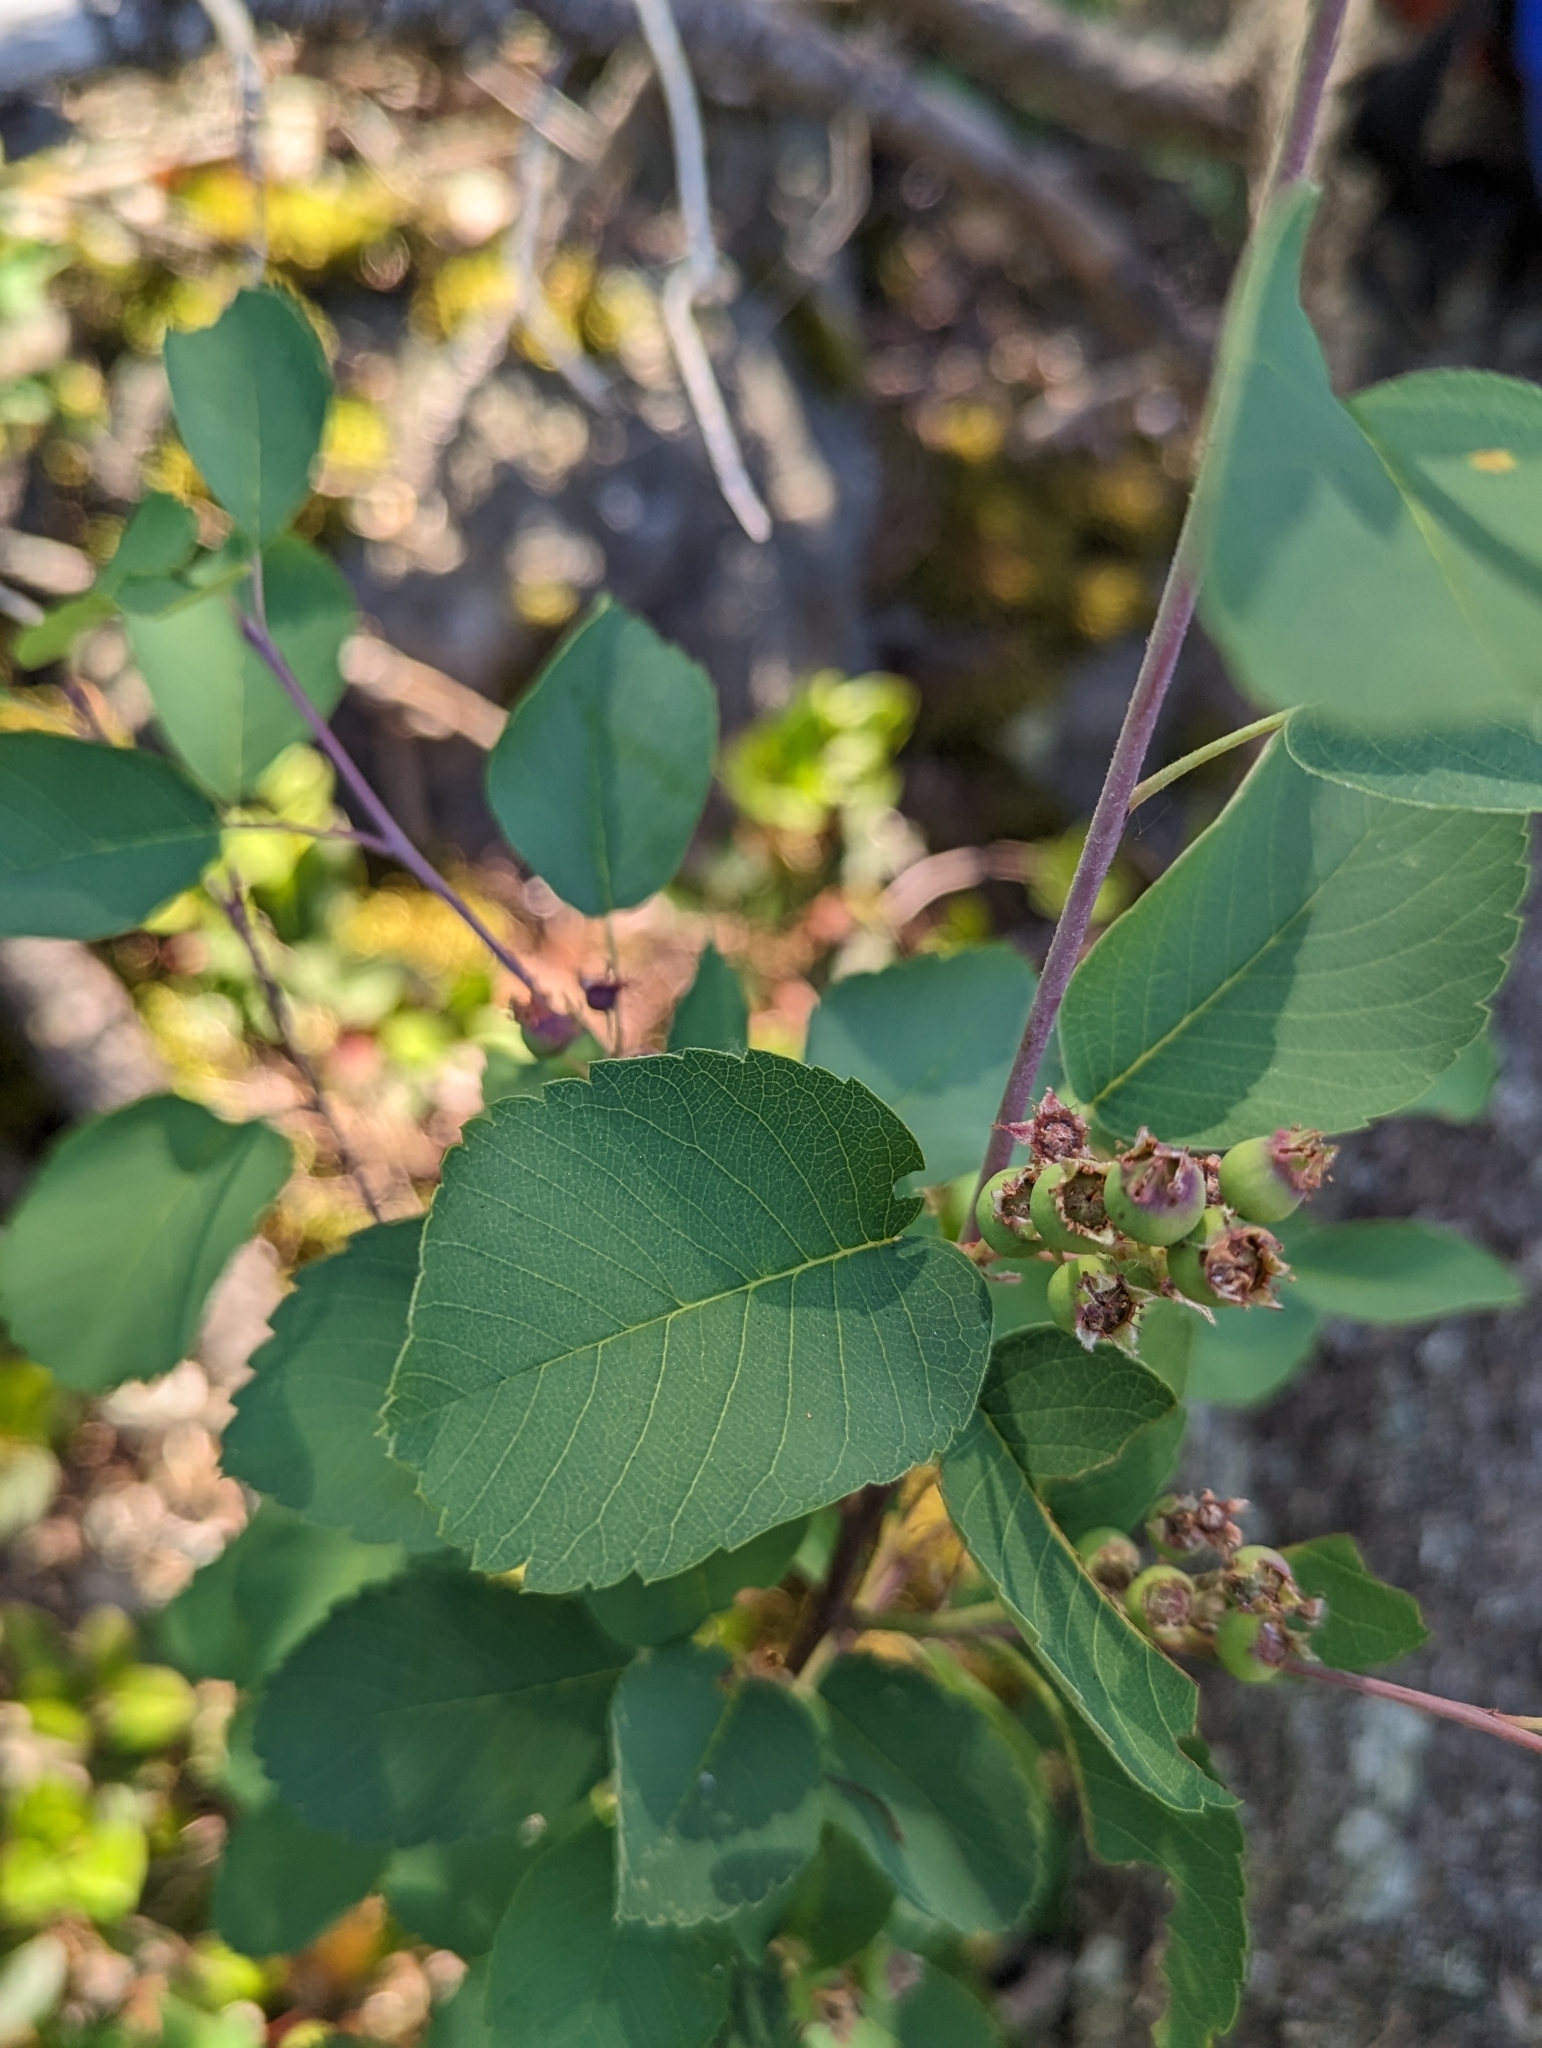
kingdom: Plantae
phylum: Tracheophyta
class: Magnoliopsida
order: Rosales
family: Rosaceae
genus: Amelanchier
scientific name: Amelanchier alnifolia
